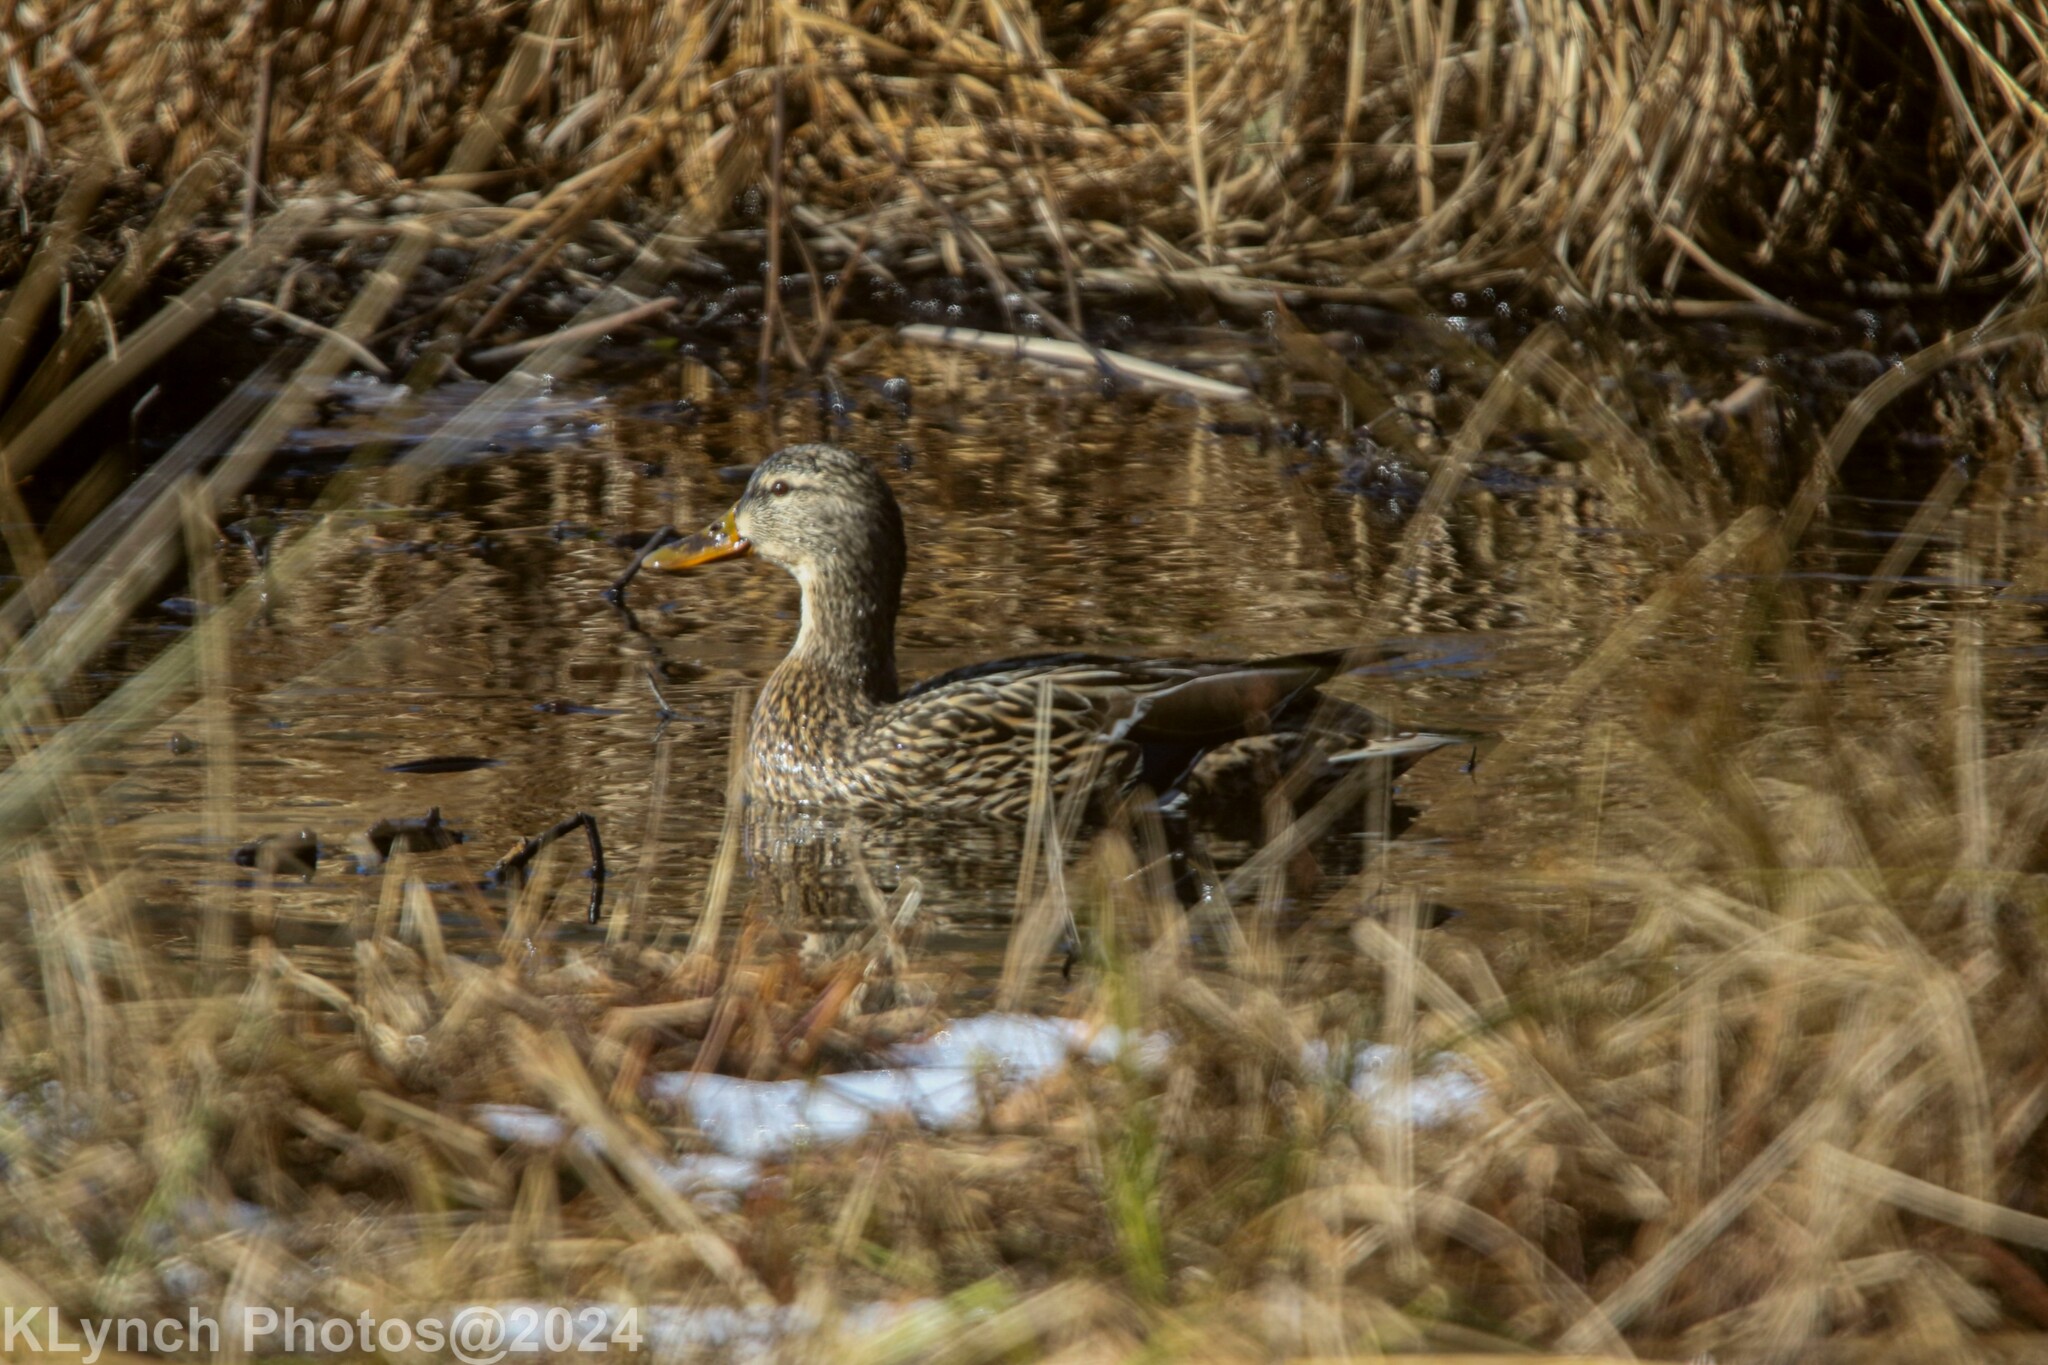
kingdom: Animalia
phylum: Chordata
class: Aves
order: Anseriformes
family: Anatidae
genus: Anas
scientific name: Anas platyrhynchos
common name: Mallard
